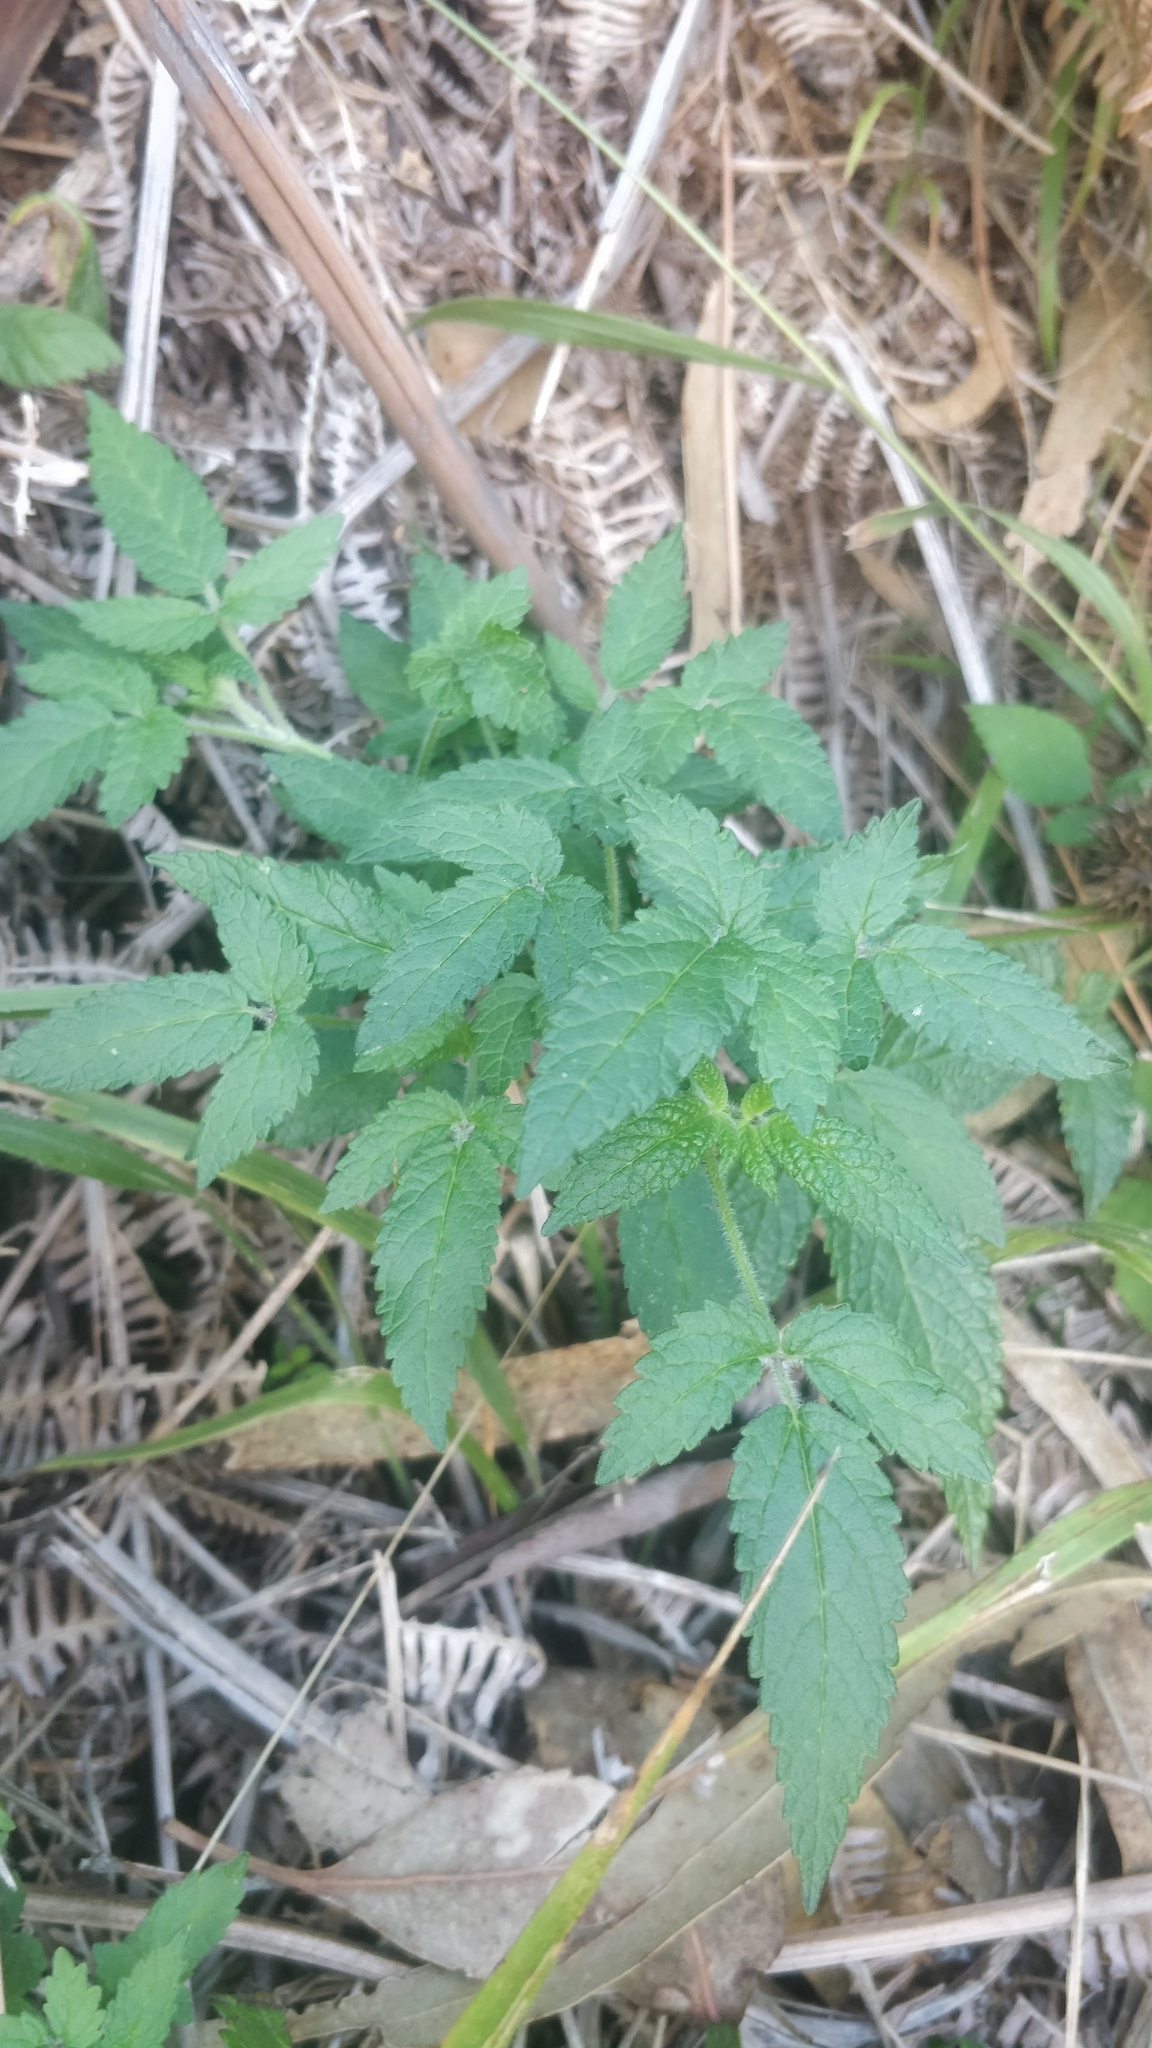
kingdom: Plantae
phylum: Tracheophyta
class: Magnoliopsida
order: Lamiales
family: Lamiaceae
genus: Cedronella
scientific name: Cedronella canariensis
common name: Canary islands balm
